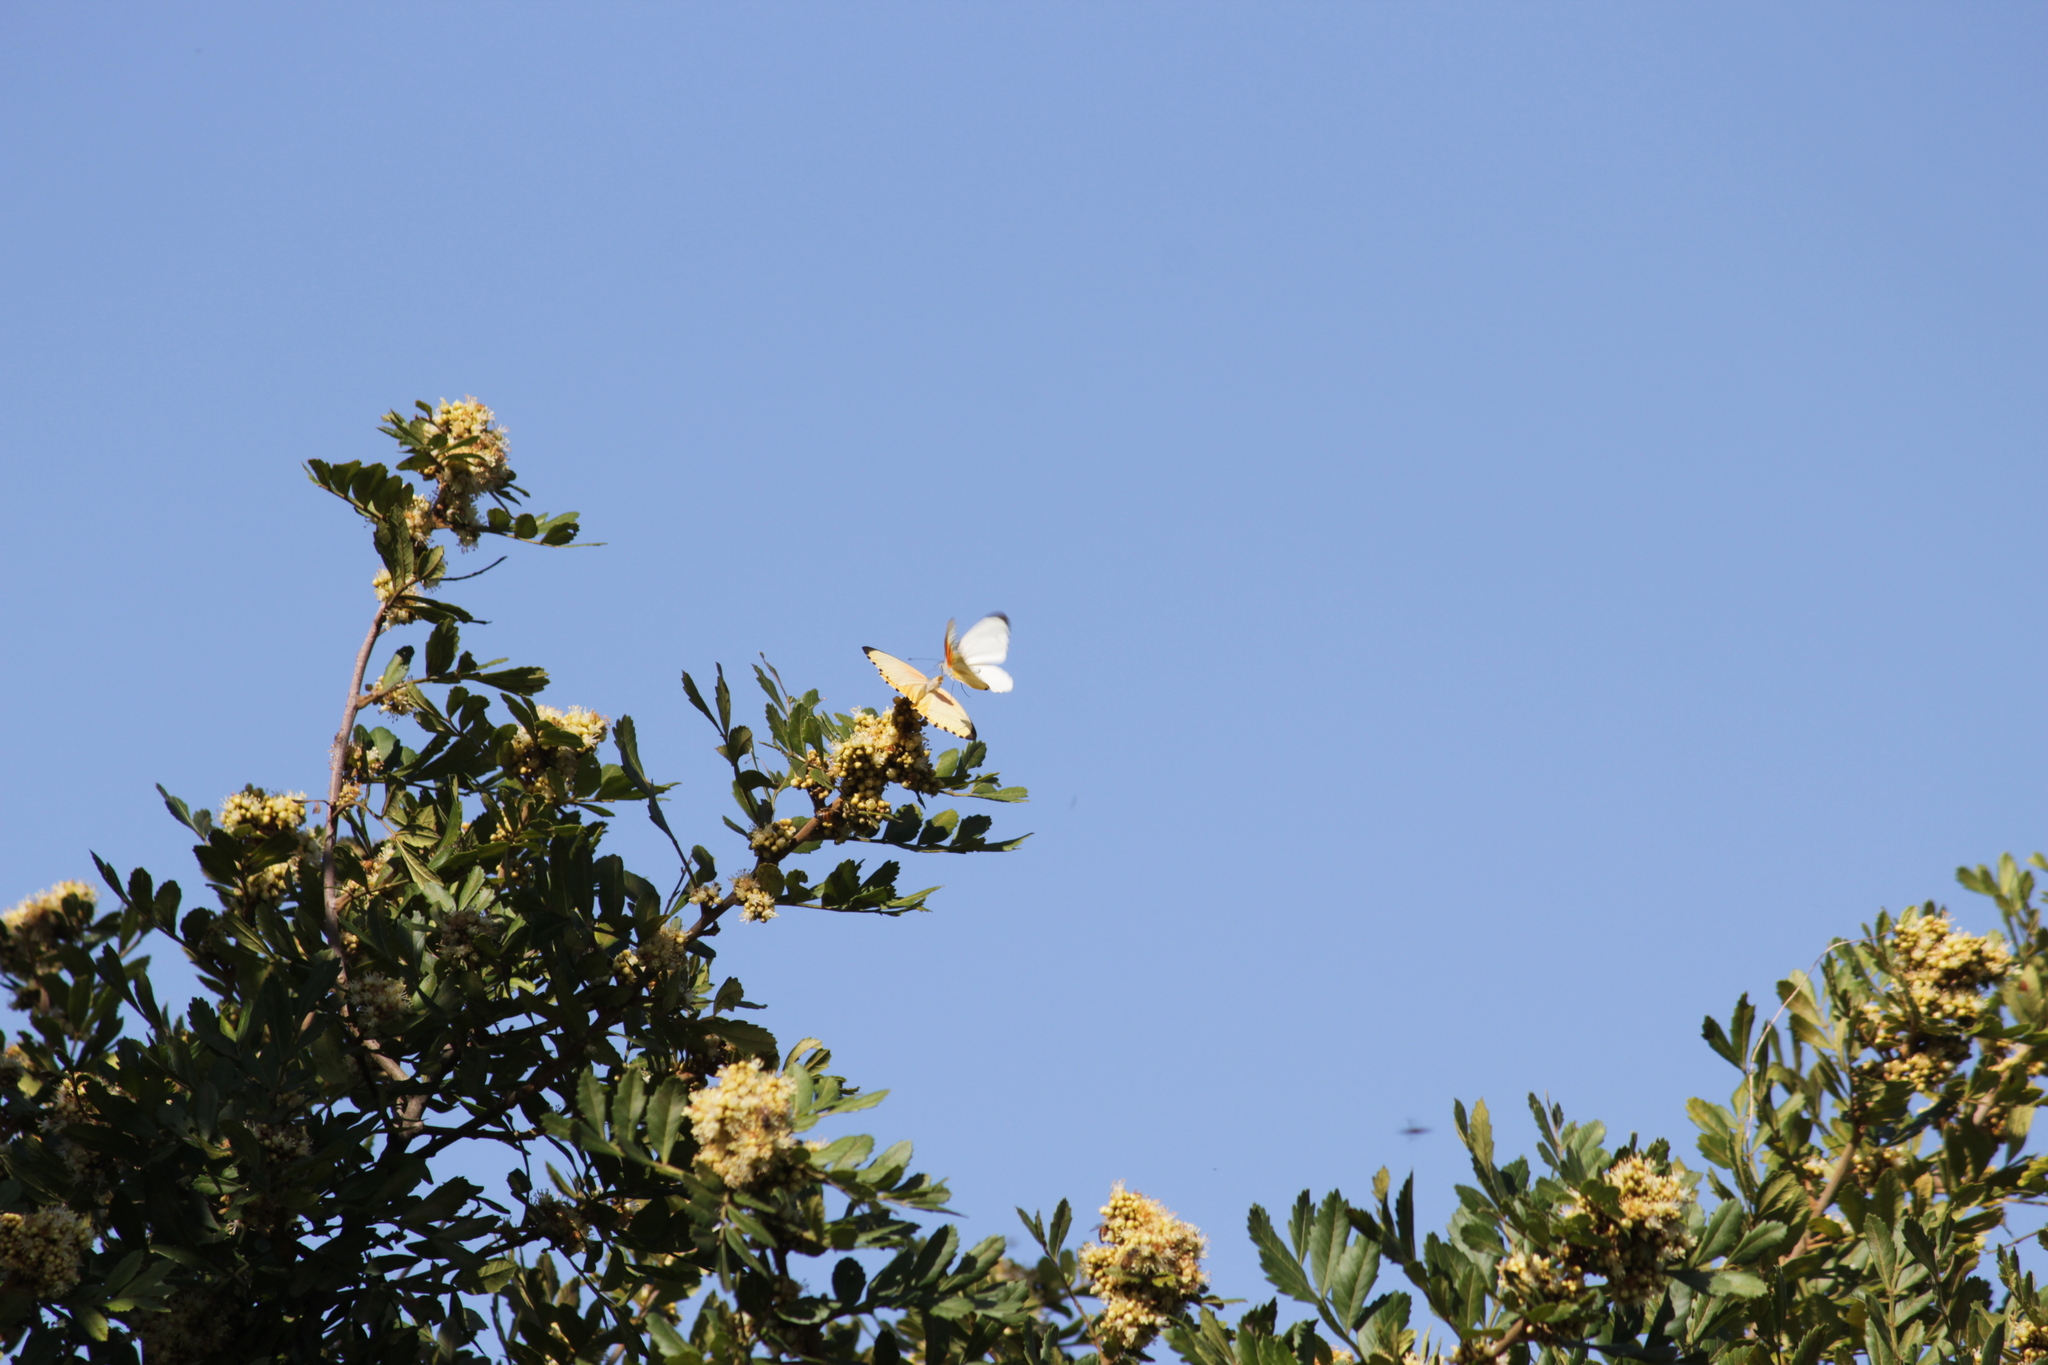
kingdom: Animalia
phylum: Arthropoda
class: Insecta
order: Lepidoptera
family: Pieridae
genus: Mylothris
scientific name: Mylothris agathina
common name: Eastern dotted border
